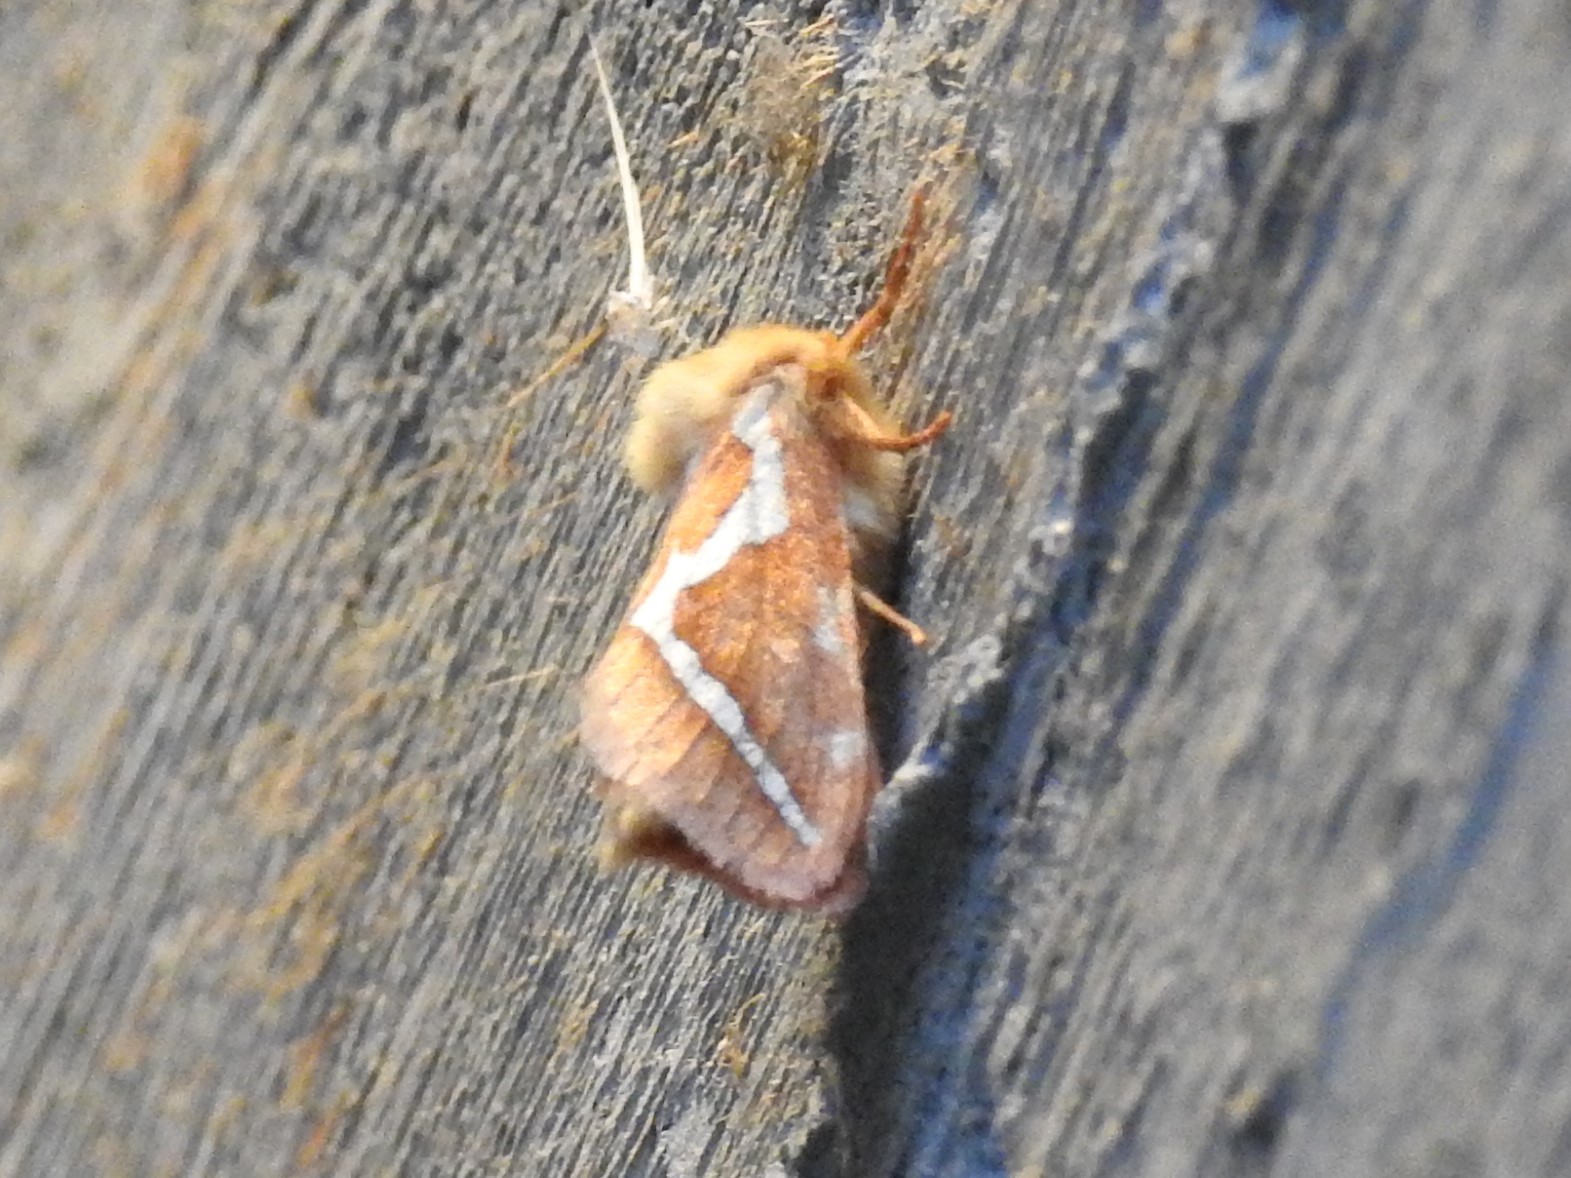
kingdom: Animalia
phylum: Arthropoda
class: Insecta
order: Lepidoptera
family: Hepialidae
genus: Gazoryctra
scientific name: Gazoryctra novigannus
